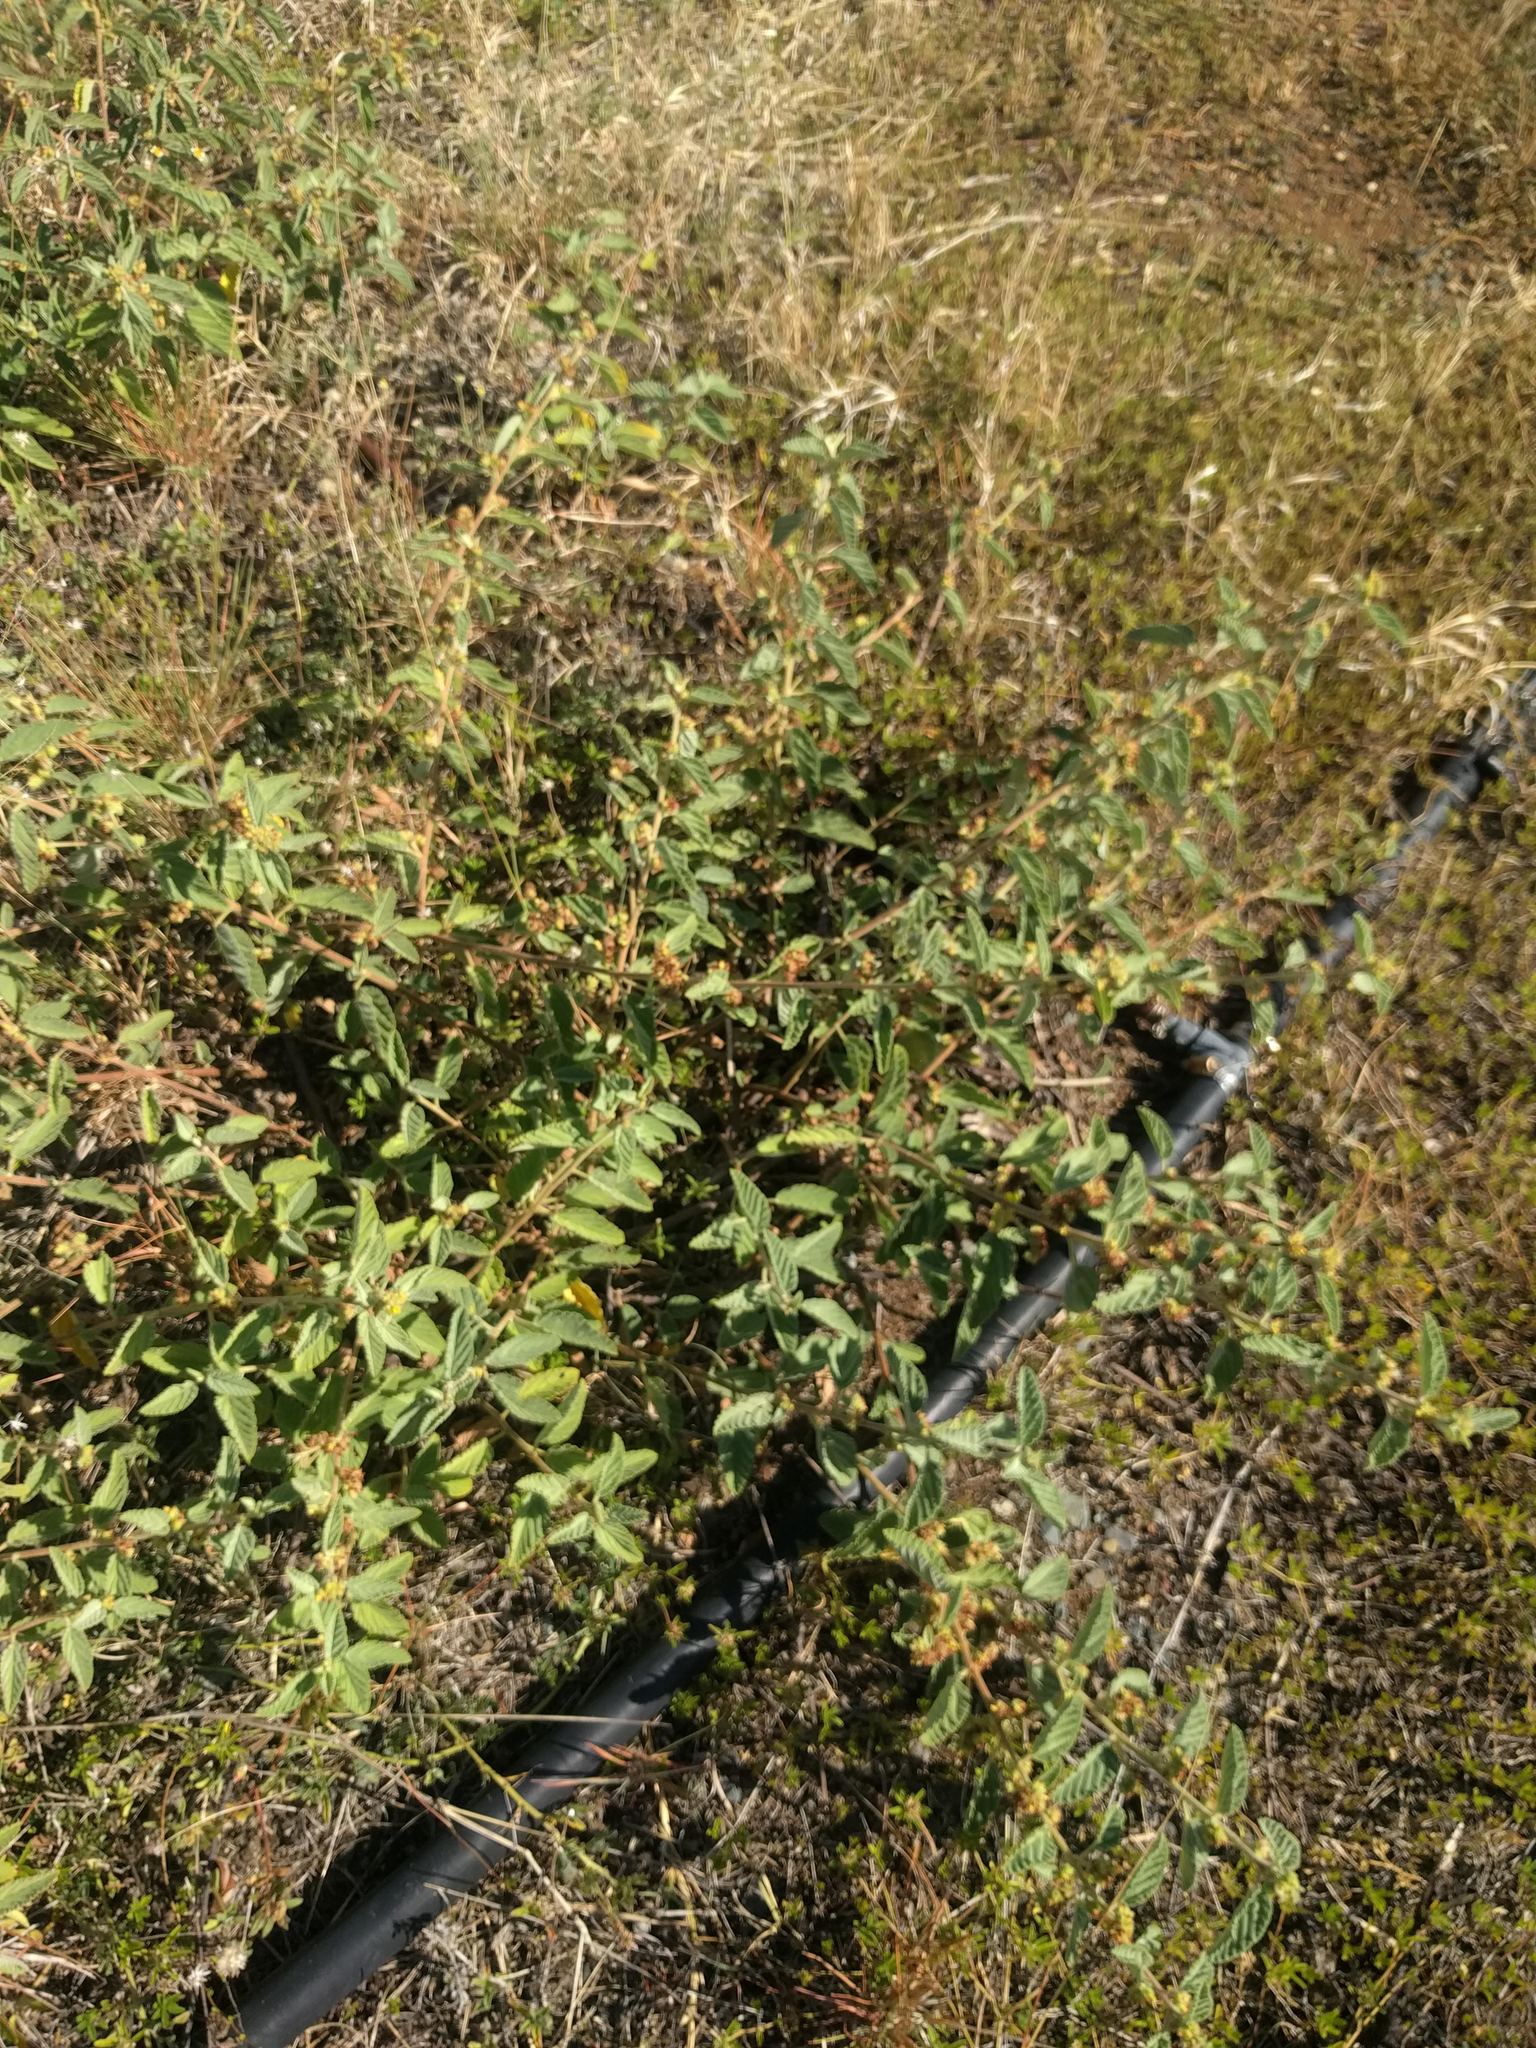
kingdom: Plantae
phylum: Tracheophyta
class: Magnoliopsida
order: Malvales
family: Malvaceae
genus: Waltheria
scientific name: Waltheria indica
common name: Leather-coat
